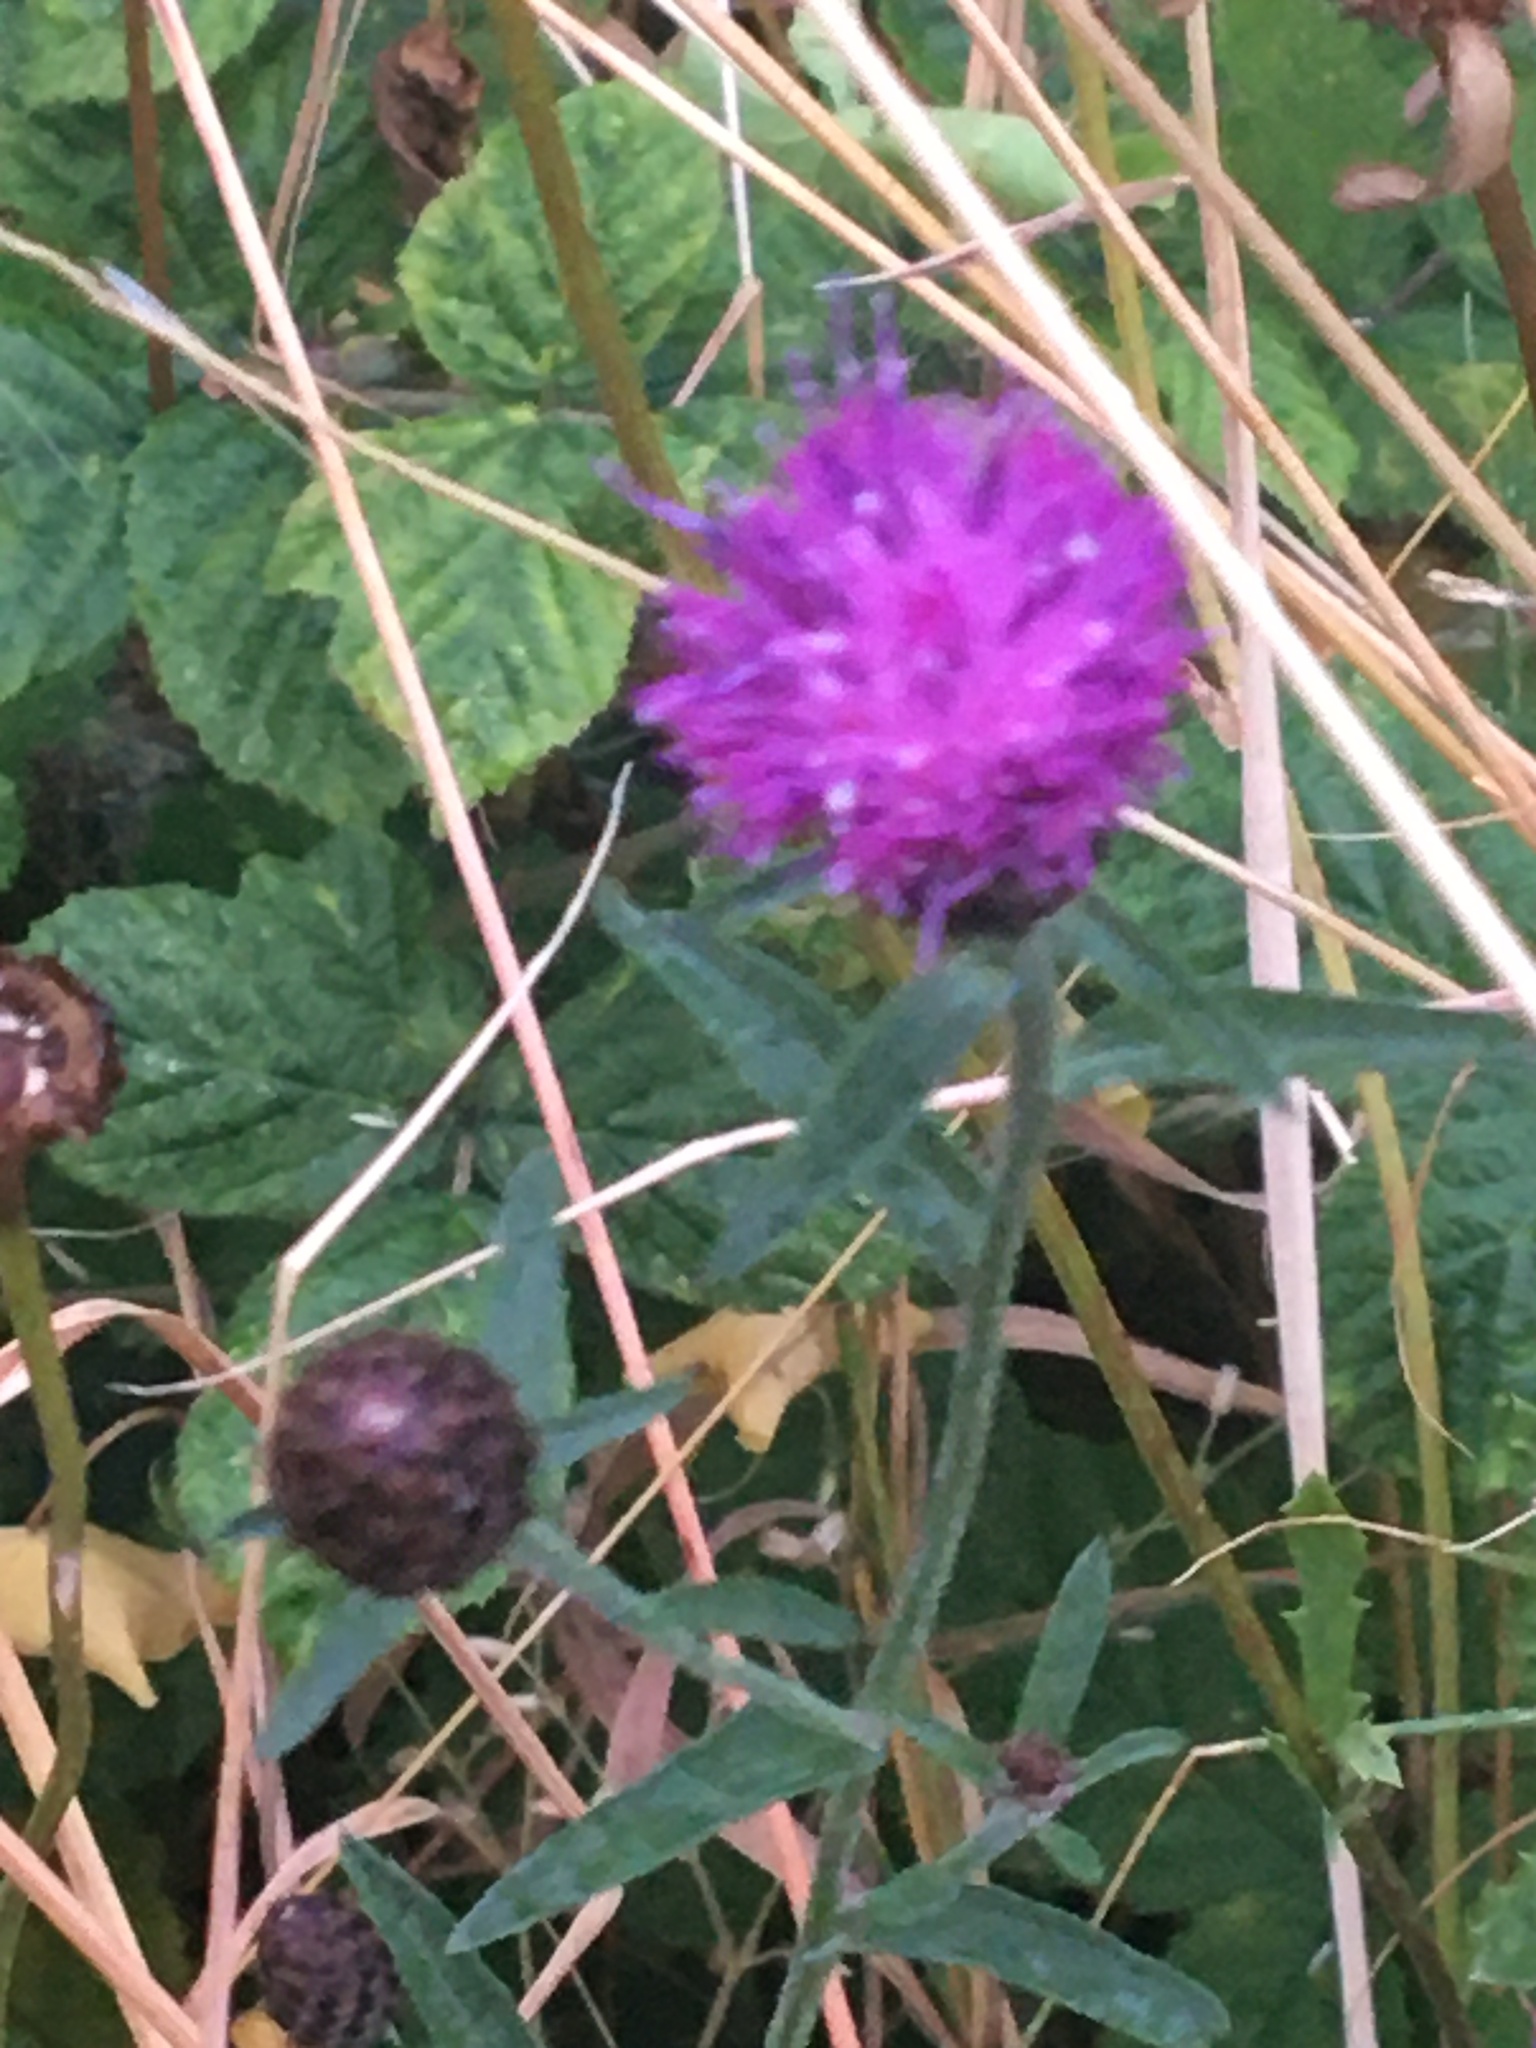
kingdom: Plantae
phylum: Tracheophyta
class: Magnoliopsida
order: Asterales
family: Asteraceae
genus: Centaurea
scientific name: Centaurea nigra
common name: Lesser knapweed
